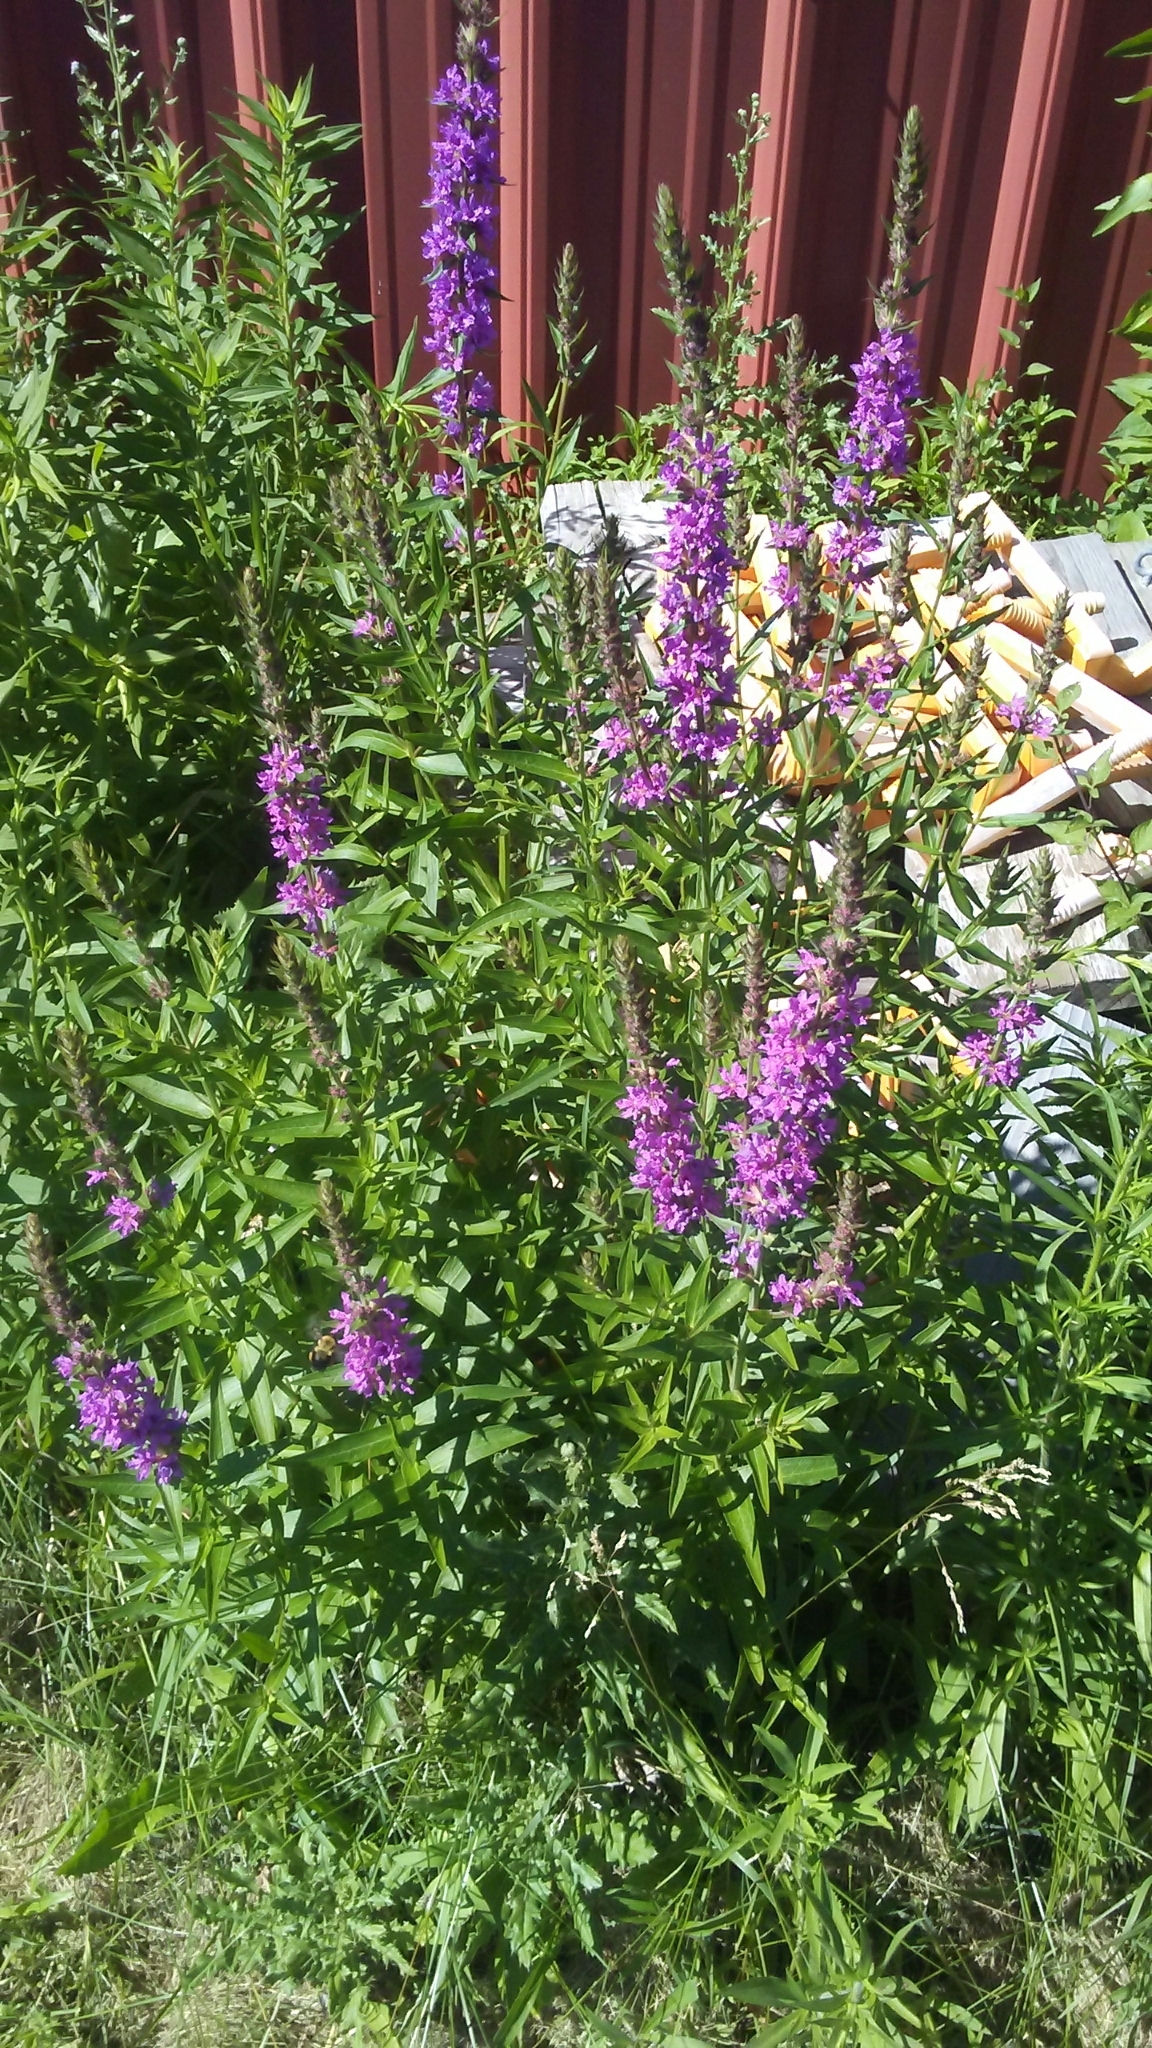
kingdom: Plantae
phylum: Tracheophyta
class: Magnoliopsida
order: Myrtales
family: Lythraceae
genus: Lythrum
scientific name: Lythrum salicaria
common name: Purple loosestrife
